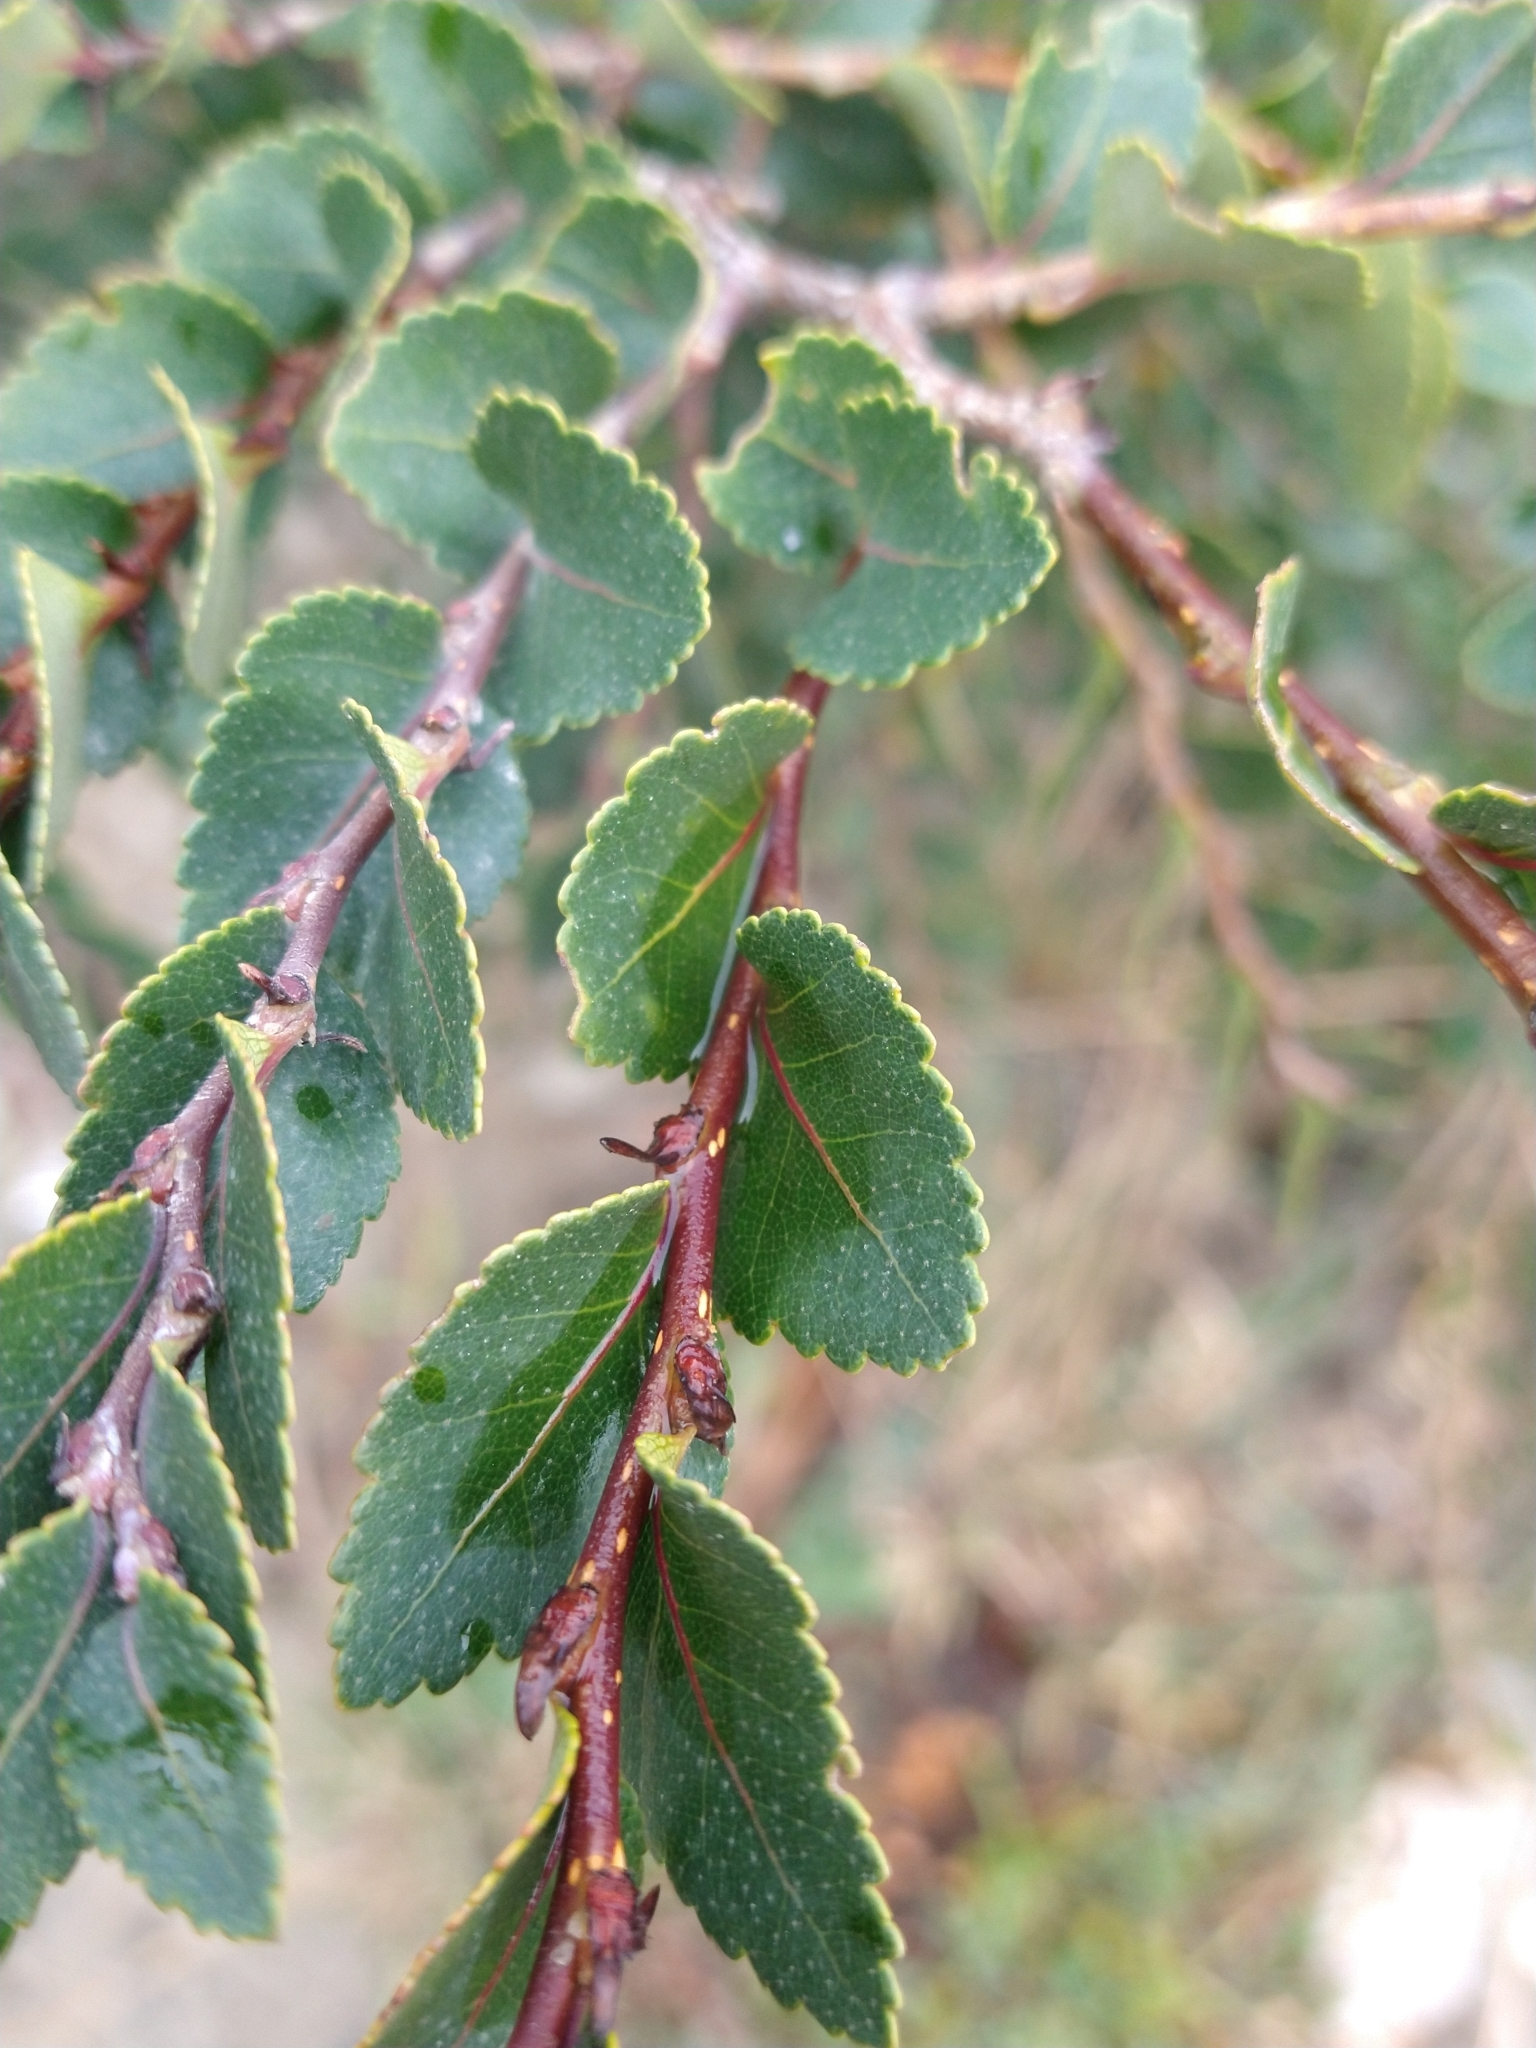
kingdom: Plantae
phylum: Tracheophyta
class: Magnoliopsida
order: Fagales
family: Nothofagaceae
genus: Nothofagus
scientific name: Nothofagus betuloides
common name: Magellan's beech
